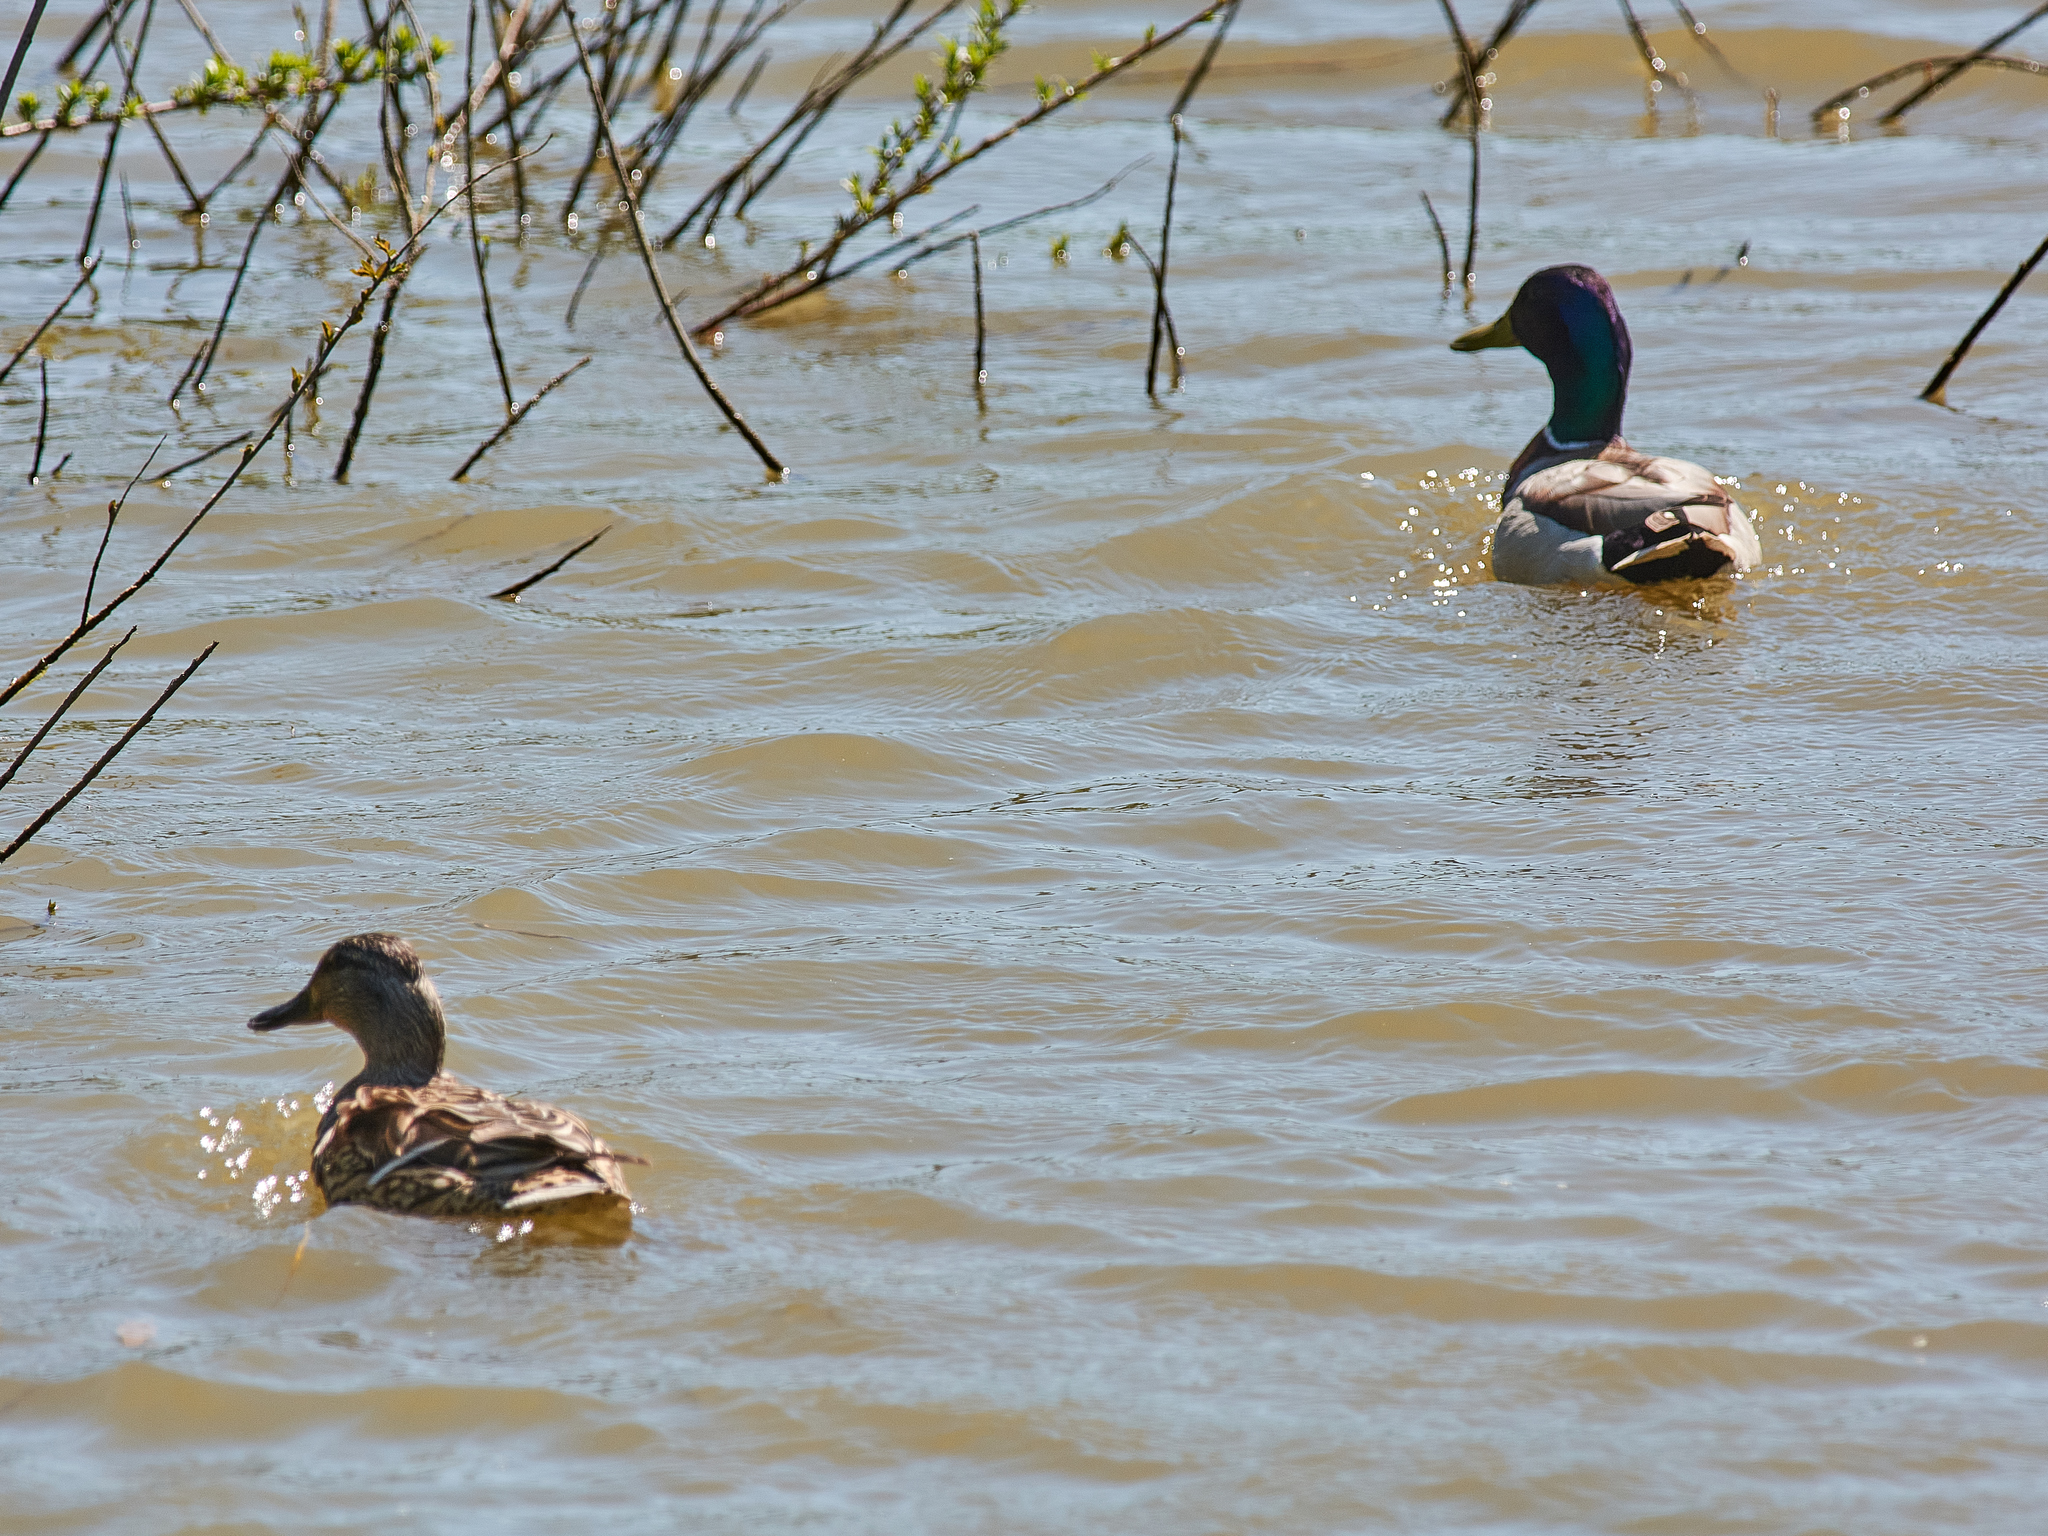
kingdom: Animalia
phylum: Chordata
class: Aves
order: Anseriformes
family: Anatidae
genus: Anas
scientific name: Anas platyrhynchos
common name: Mallard
